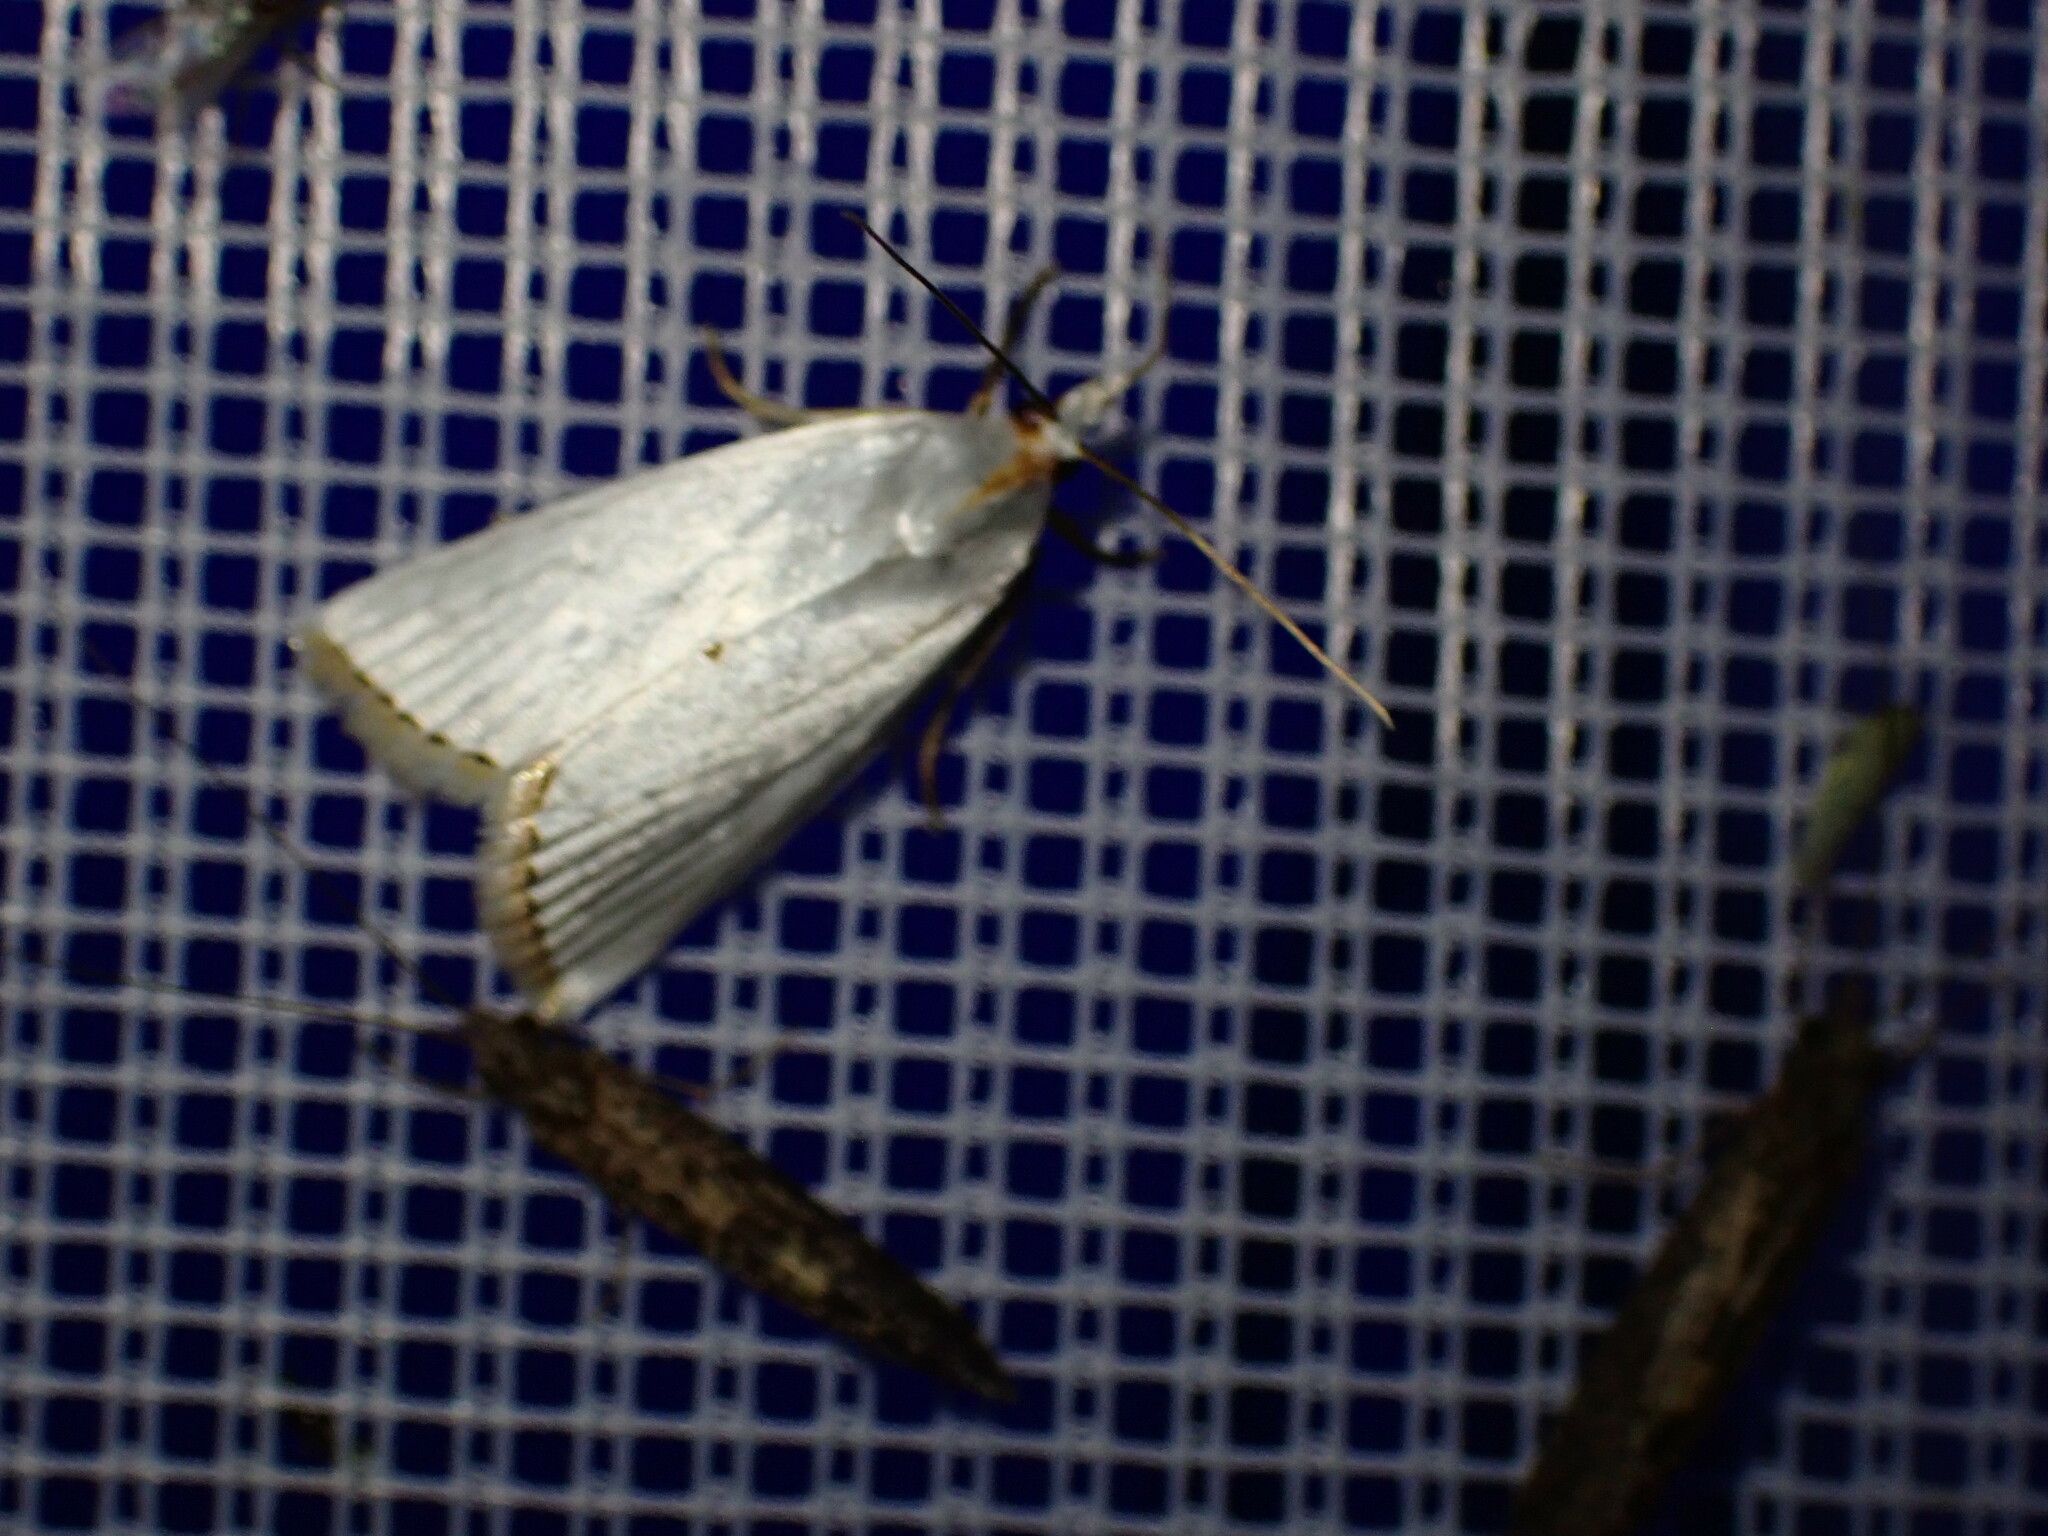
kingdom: Animalia
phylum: Arthropoda
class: Insecta
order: Lepidoptera
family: Crambidae
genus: Argyria
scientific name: Argyria nivalis
